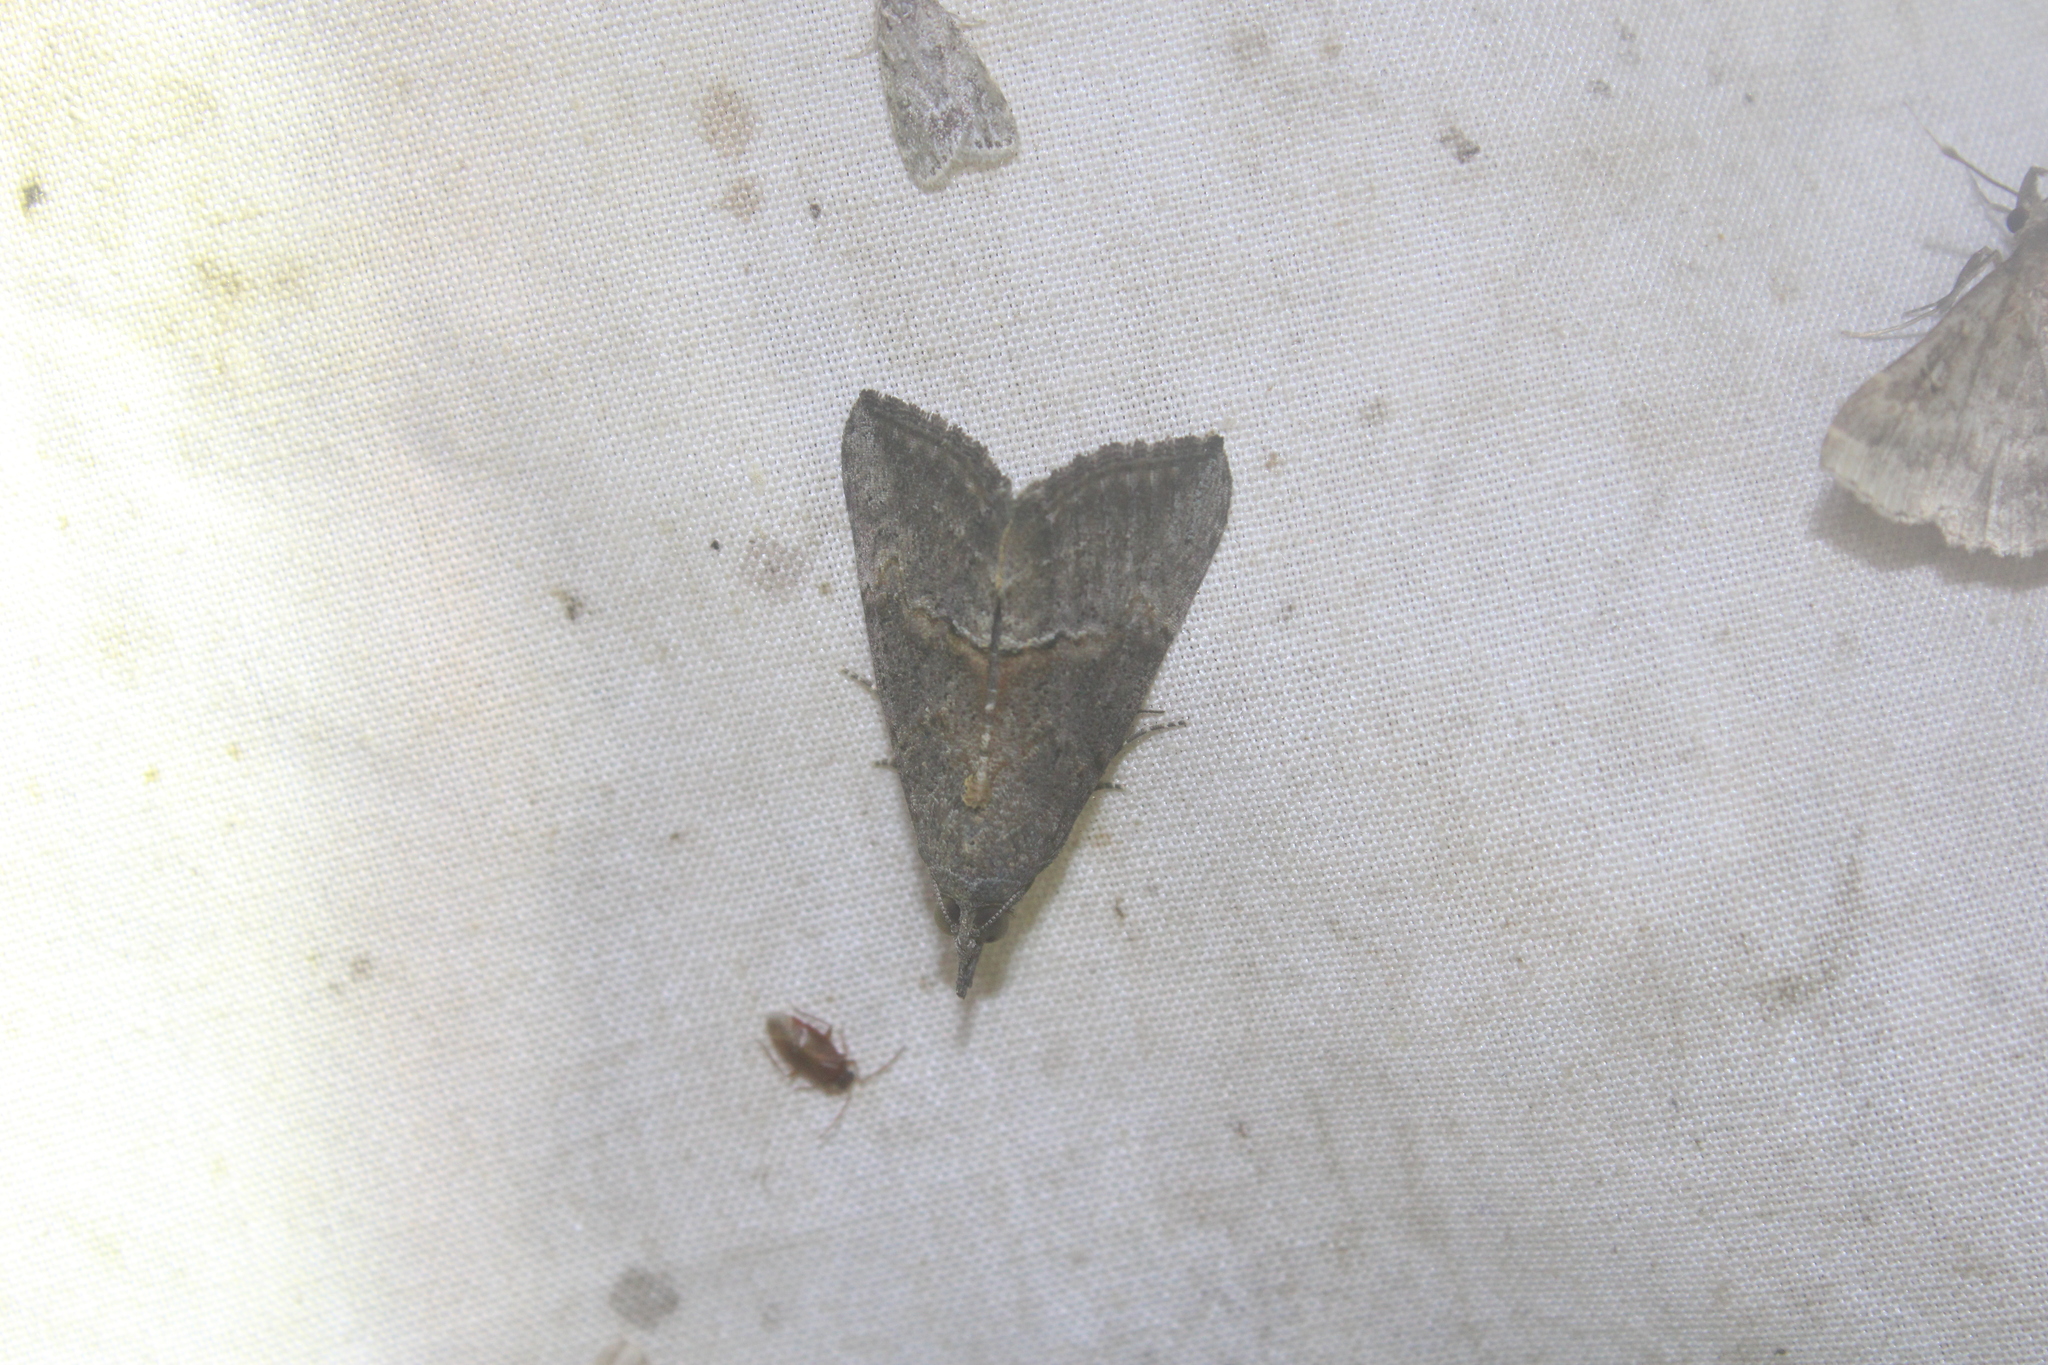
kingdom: Animalia
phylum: Arthropoda
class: Insecta
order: Lepidoptera
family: Erebidae
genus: Hypena
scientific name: Hypena scabra
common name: Green cloverworm
